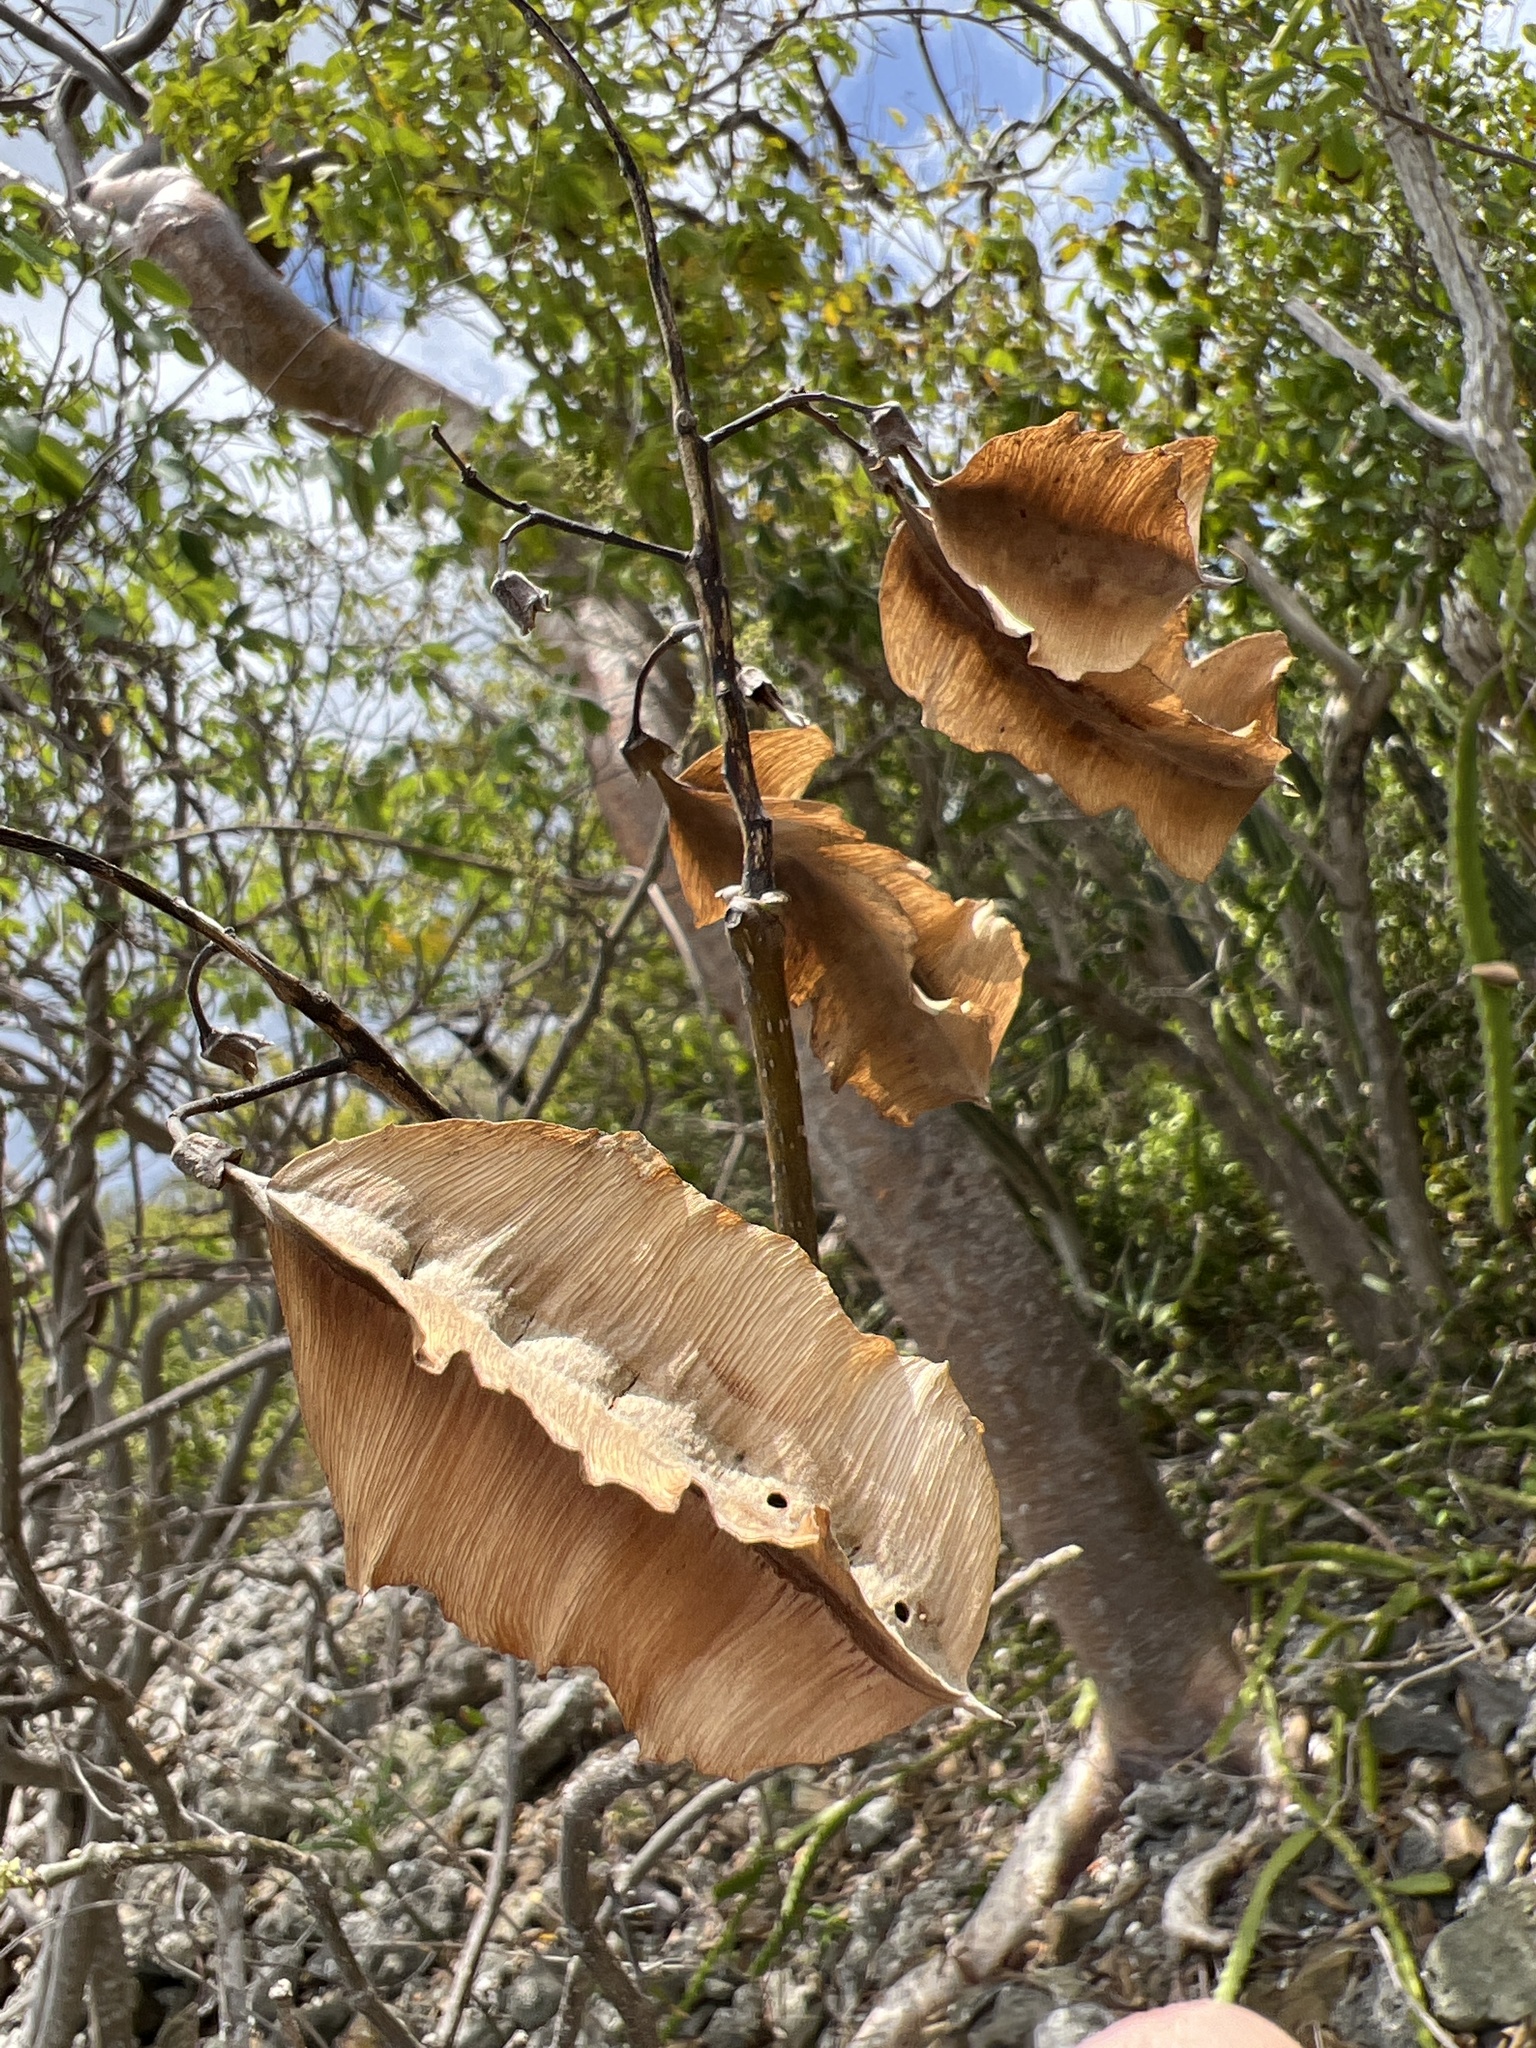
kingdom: Plantae
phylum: Tracheophyta
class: Magnoliopsida
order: Fabales
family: Fabaceae
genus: Piscidia
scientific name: Piscidia carthagenensis
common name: Stinkwood
